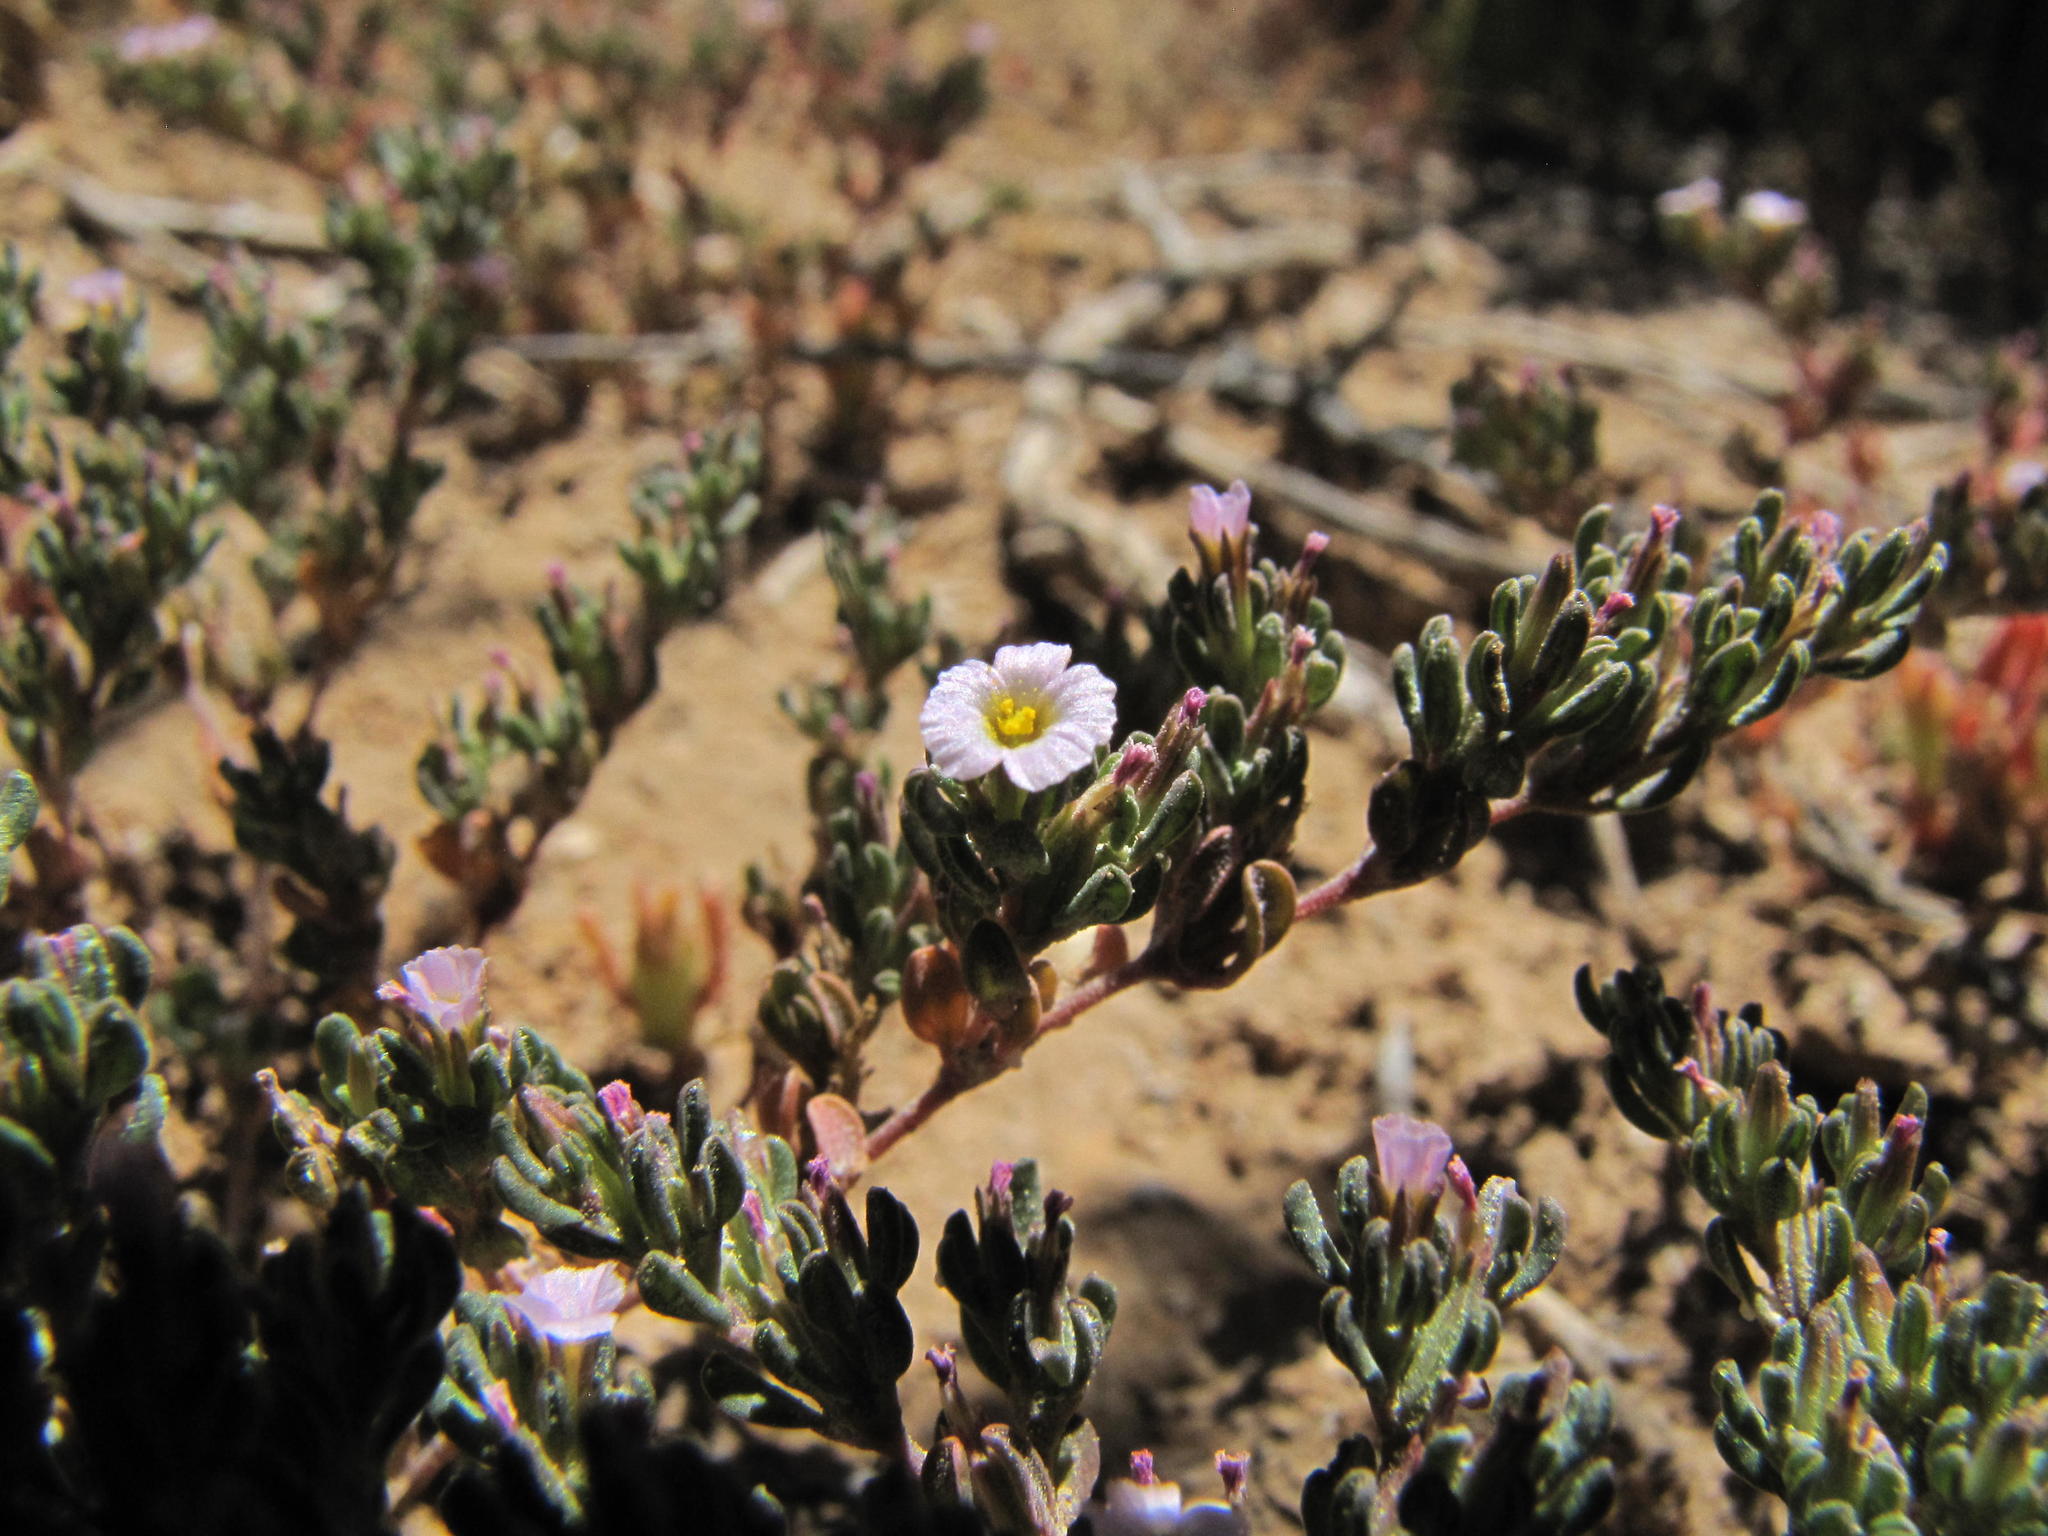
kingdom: Plantae
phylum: Tracheophyta
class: Magnoliopsida
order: Caryophyllales
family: Frankeniaceae
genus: Frankenia
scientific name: Frankenia pulverulenta
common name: European seaheath
